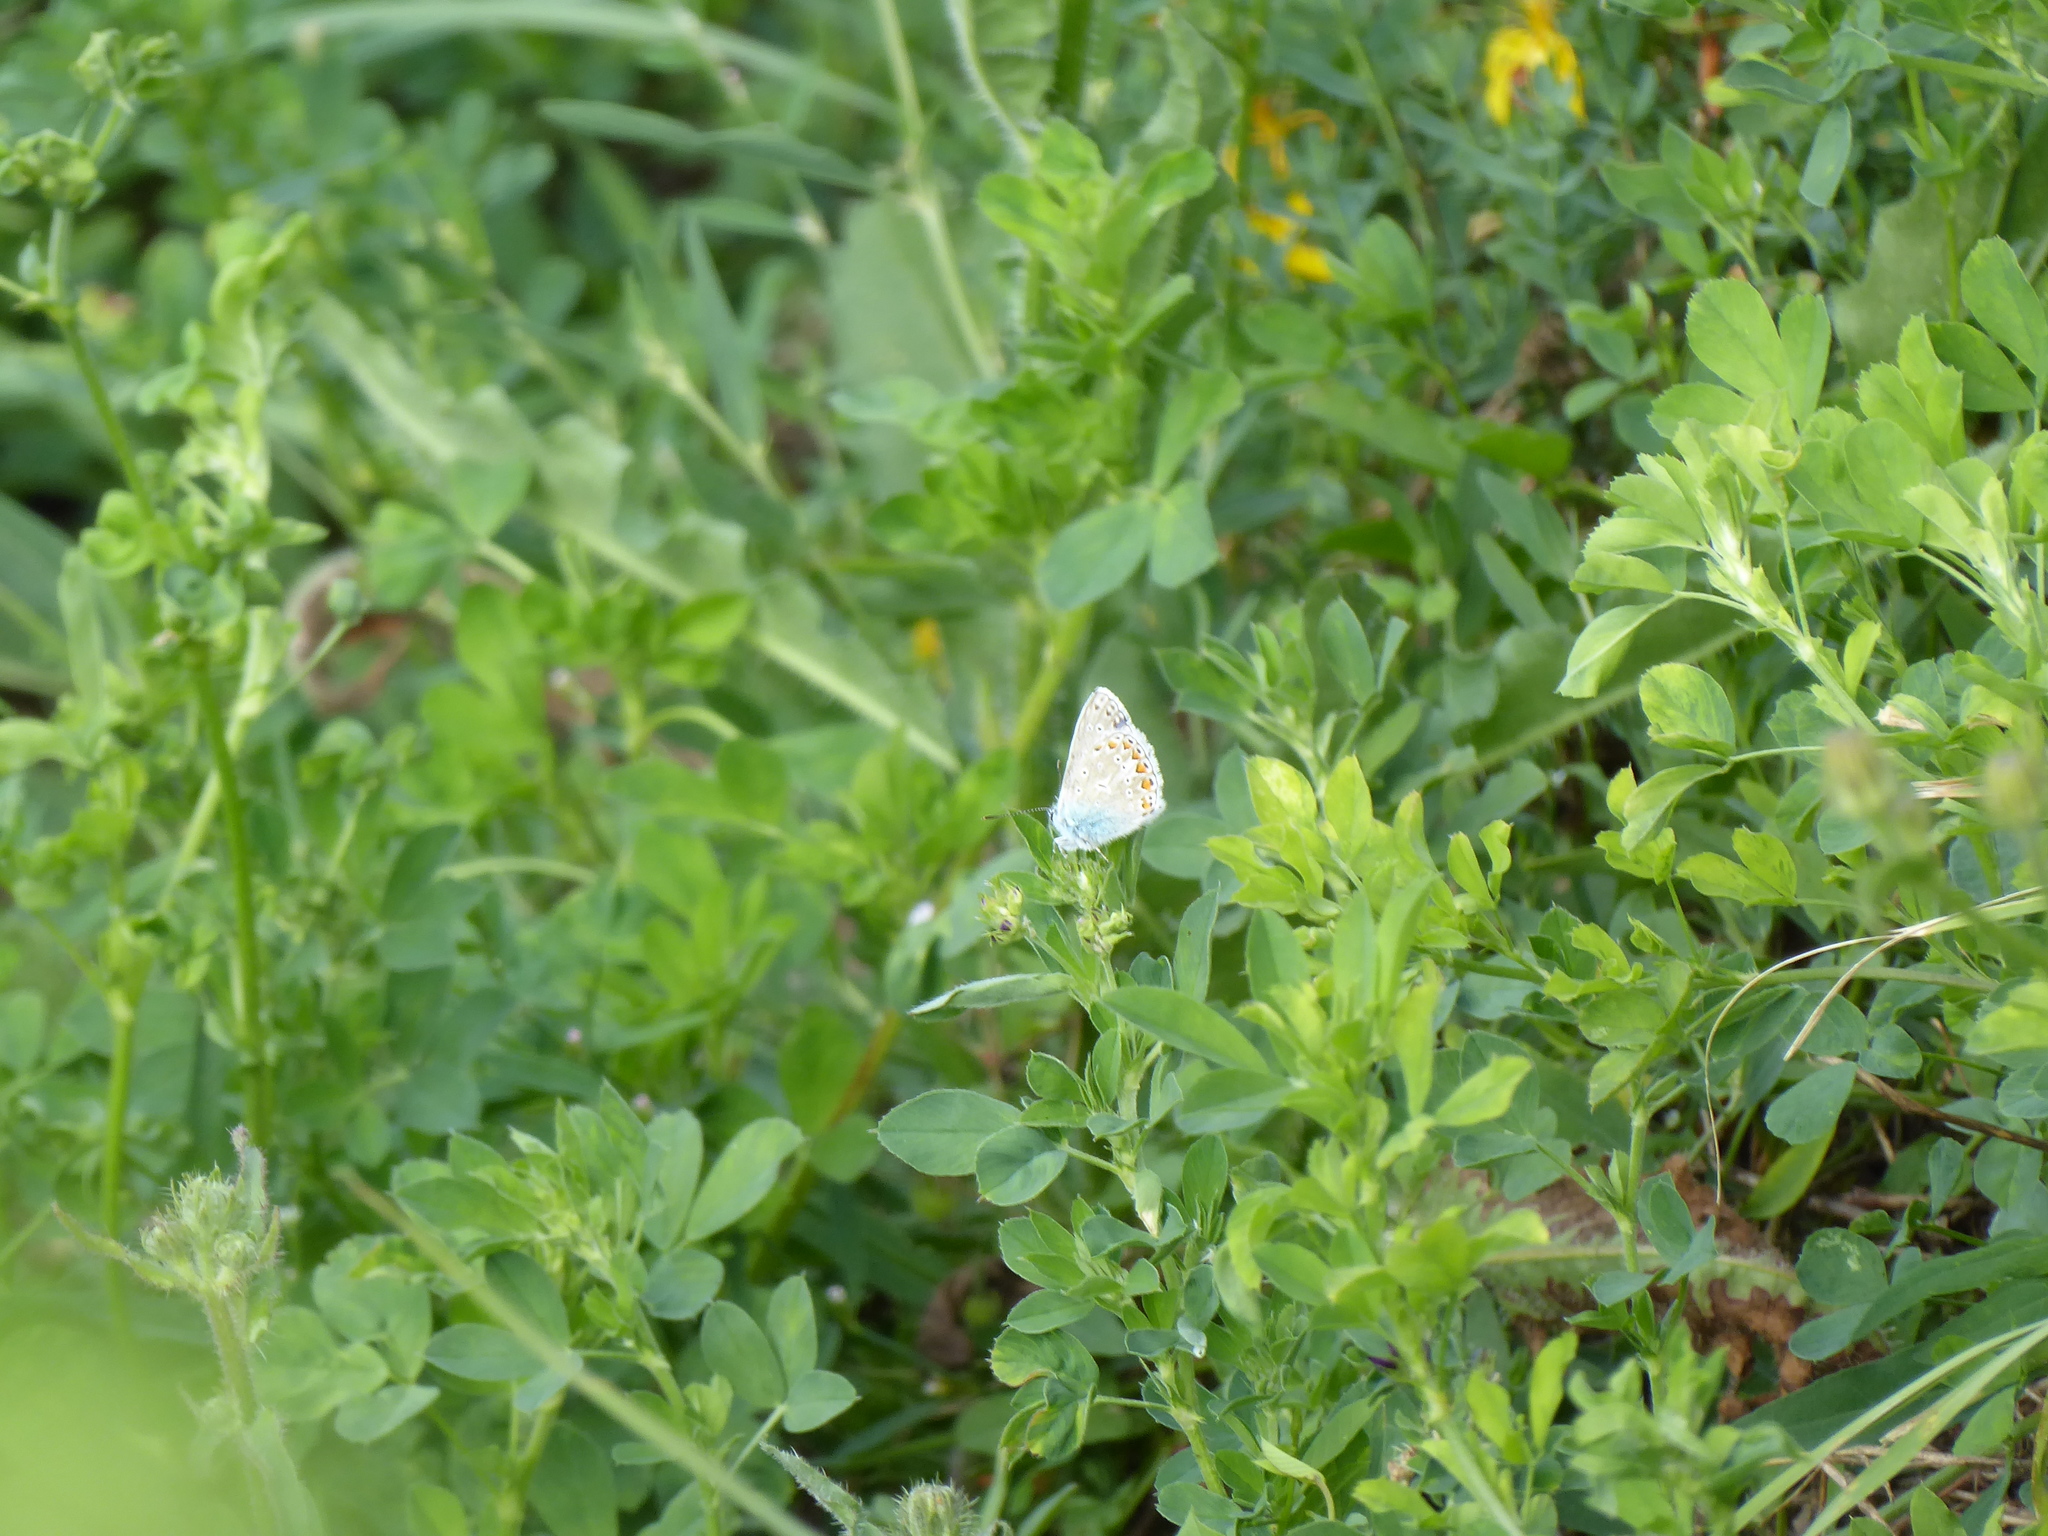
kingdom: Animalia
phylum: Arthropoda
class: Insecta
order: Lepidoptera
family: Lycaenidae
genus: Polyommatus
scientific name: Polyommatus icarus
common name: Common blue
